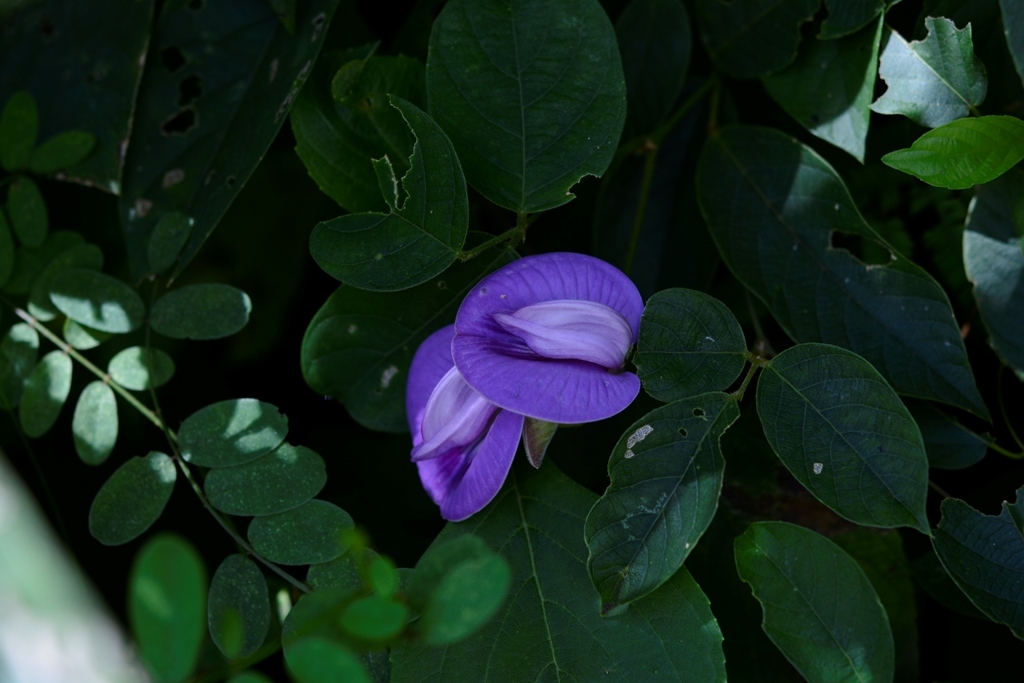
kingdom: Plantae
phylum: Tracheophyta
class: Magnoliopsida
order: Fabales
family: Fabaceae
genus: Centrosema
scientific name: Centrosema virginianum
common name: Butterfly-pea
